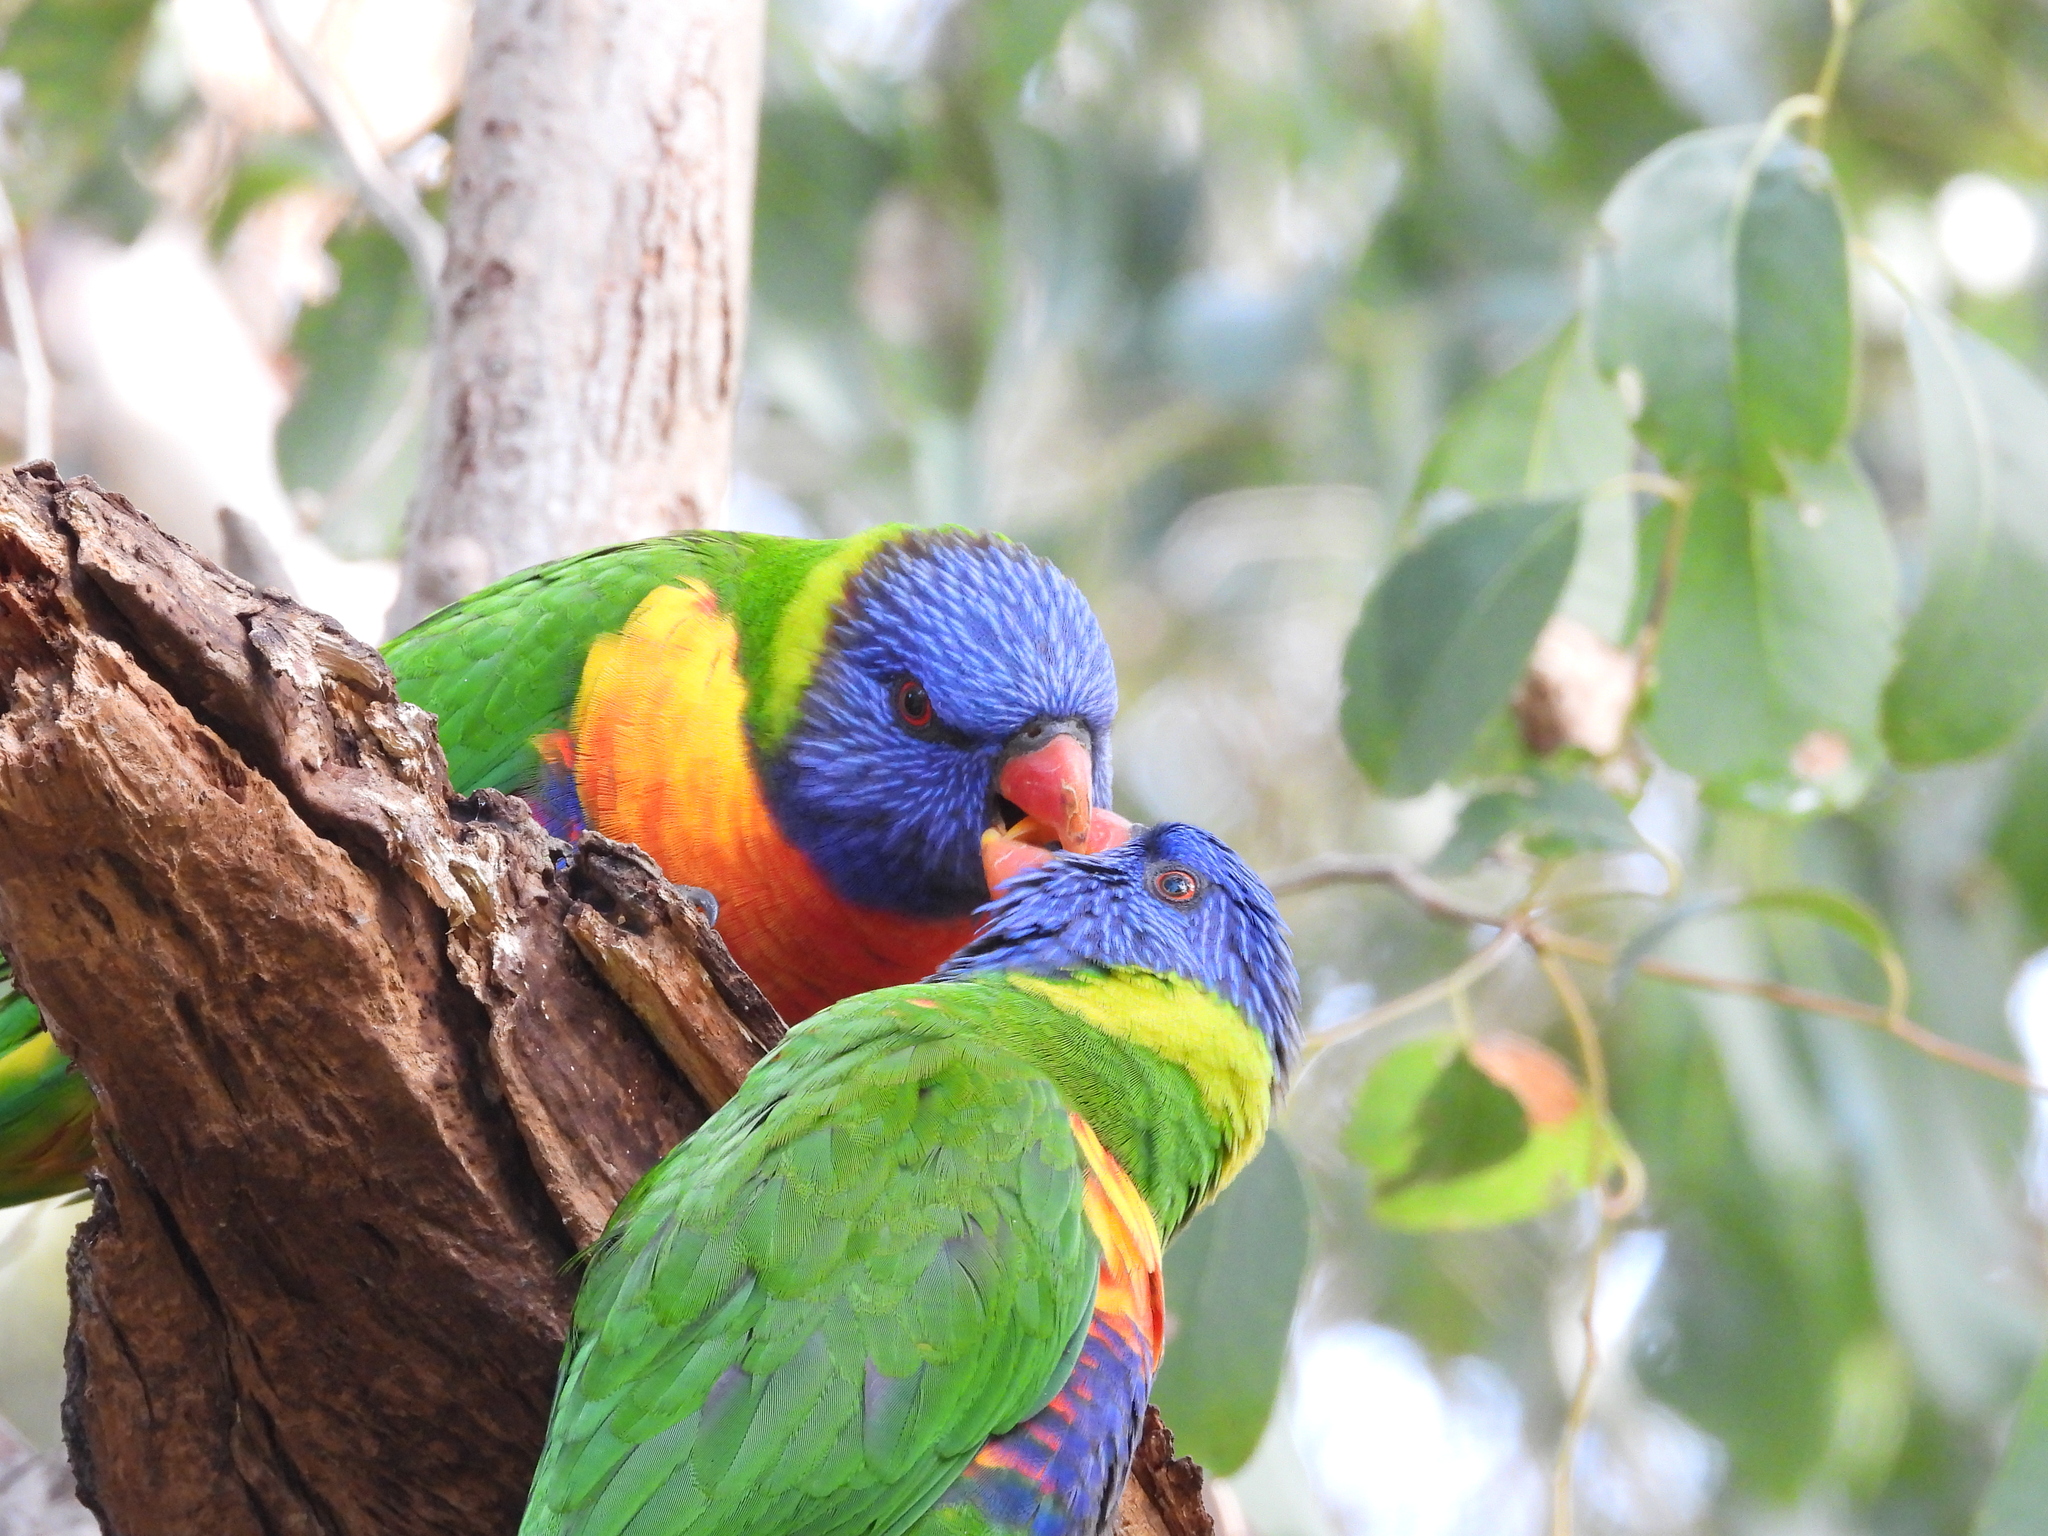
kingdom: Animalia
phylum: Chordata
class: Aves
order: Psittaciformes
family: Psittacidae
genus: Trichoglossus
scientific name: Trichoglossus haematodus
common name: Coconut lorikeet
